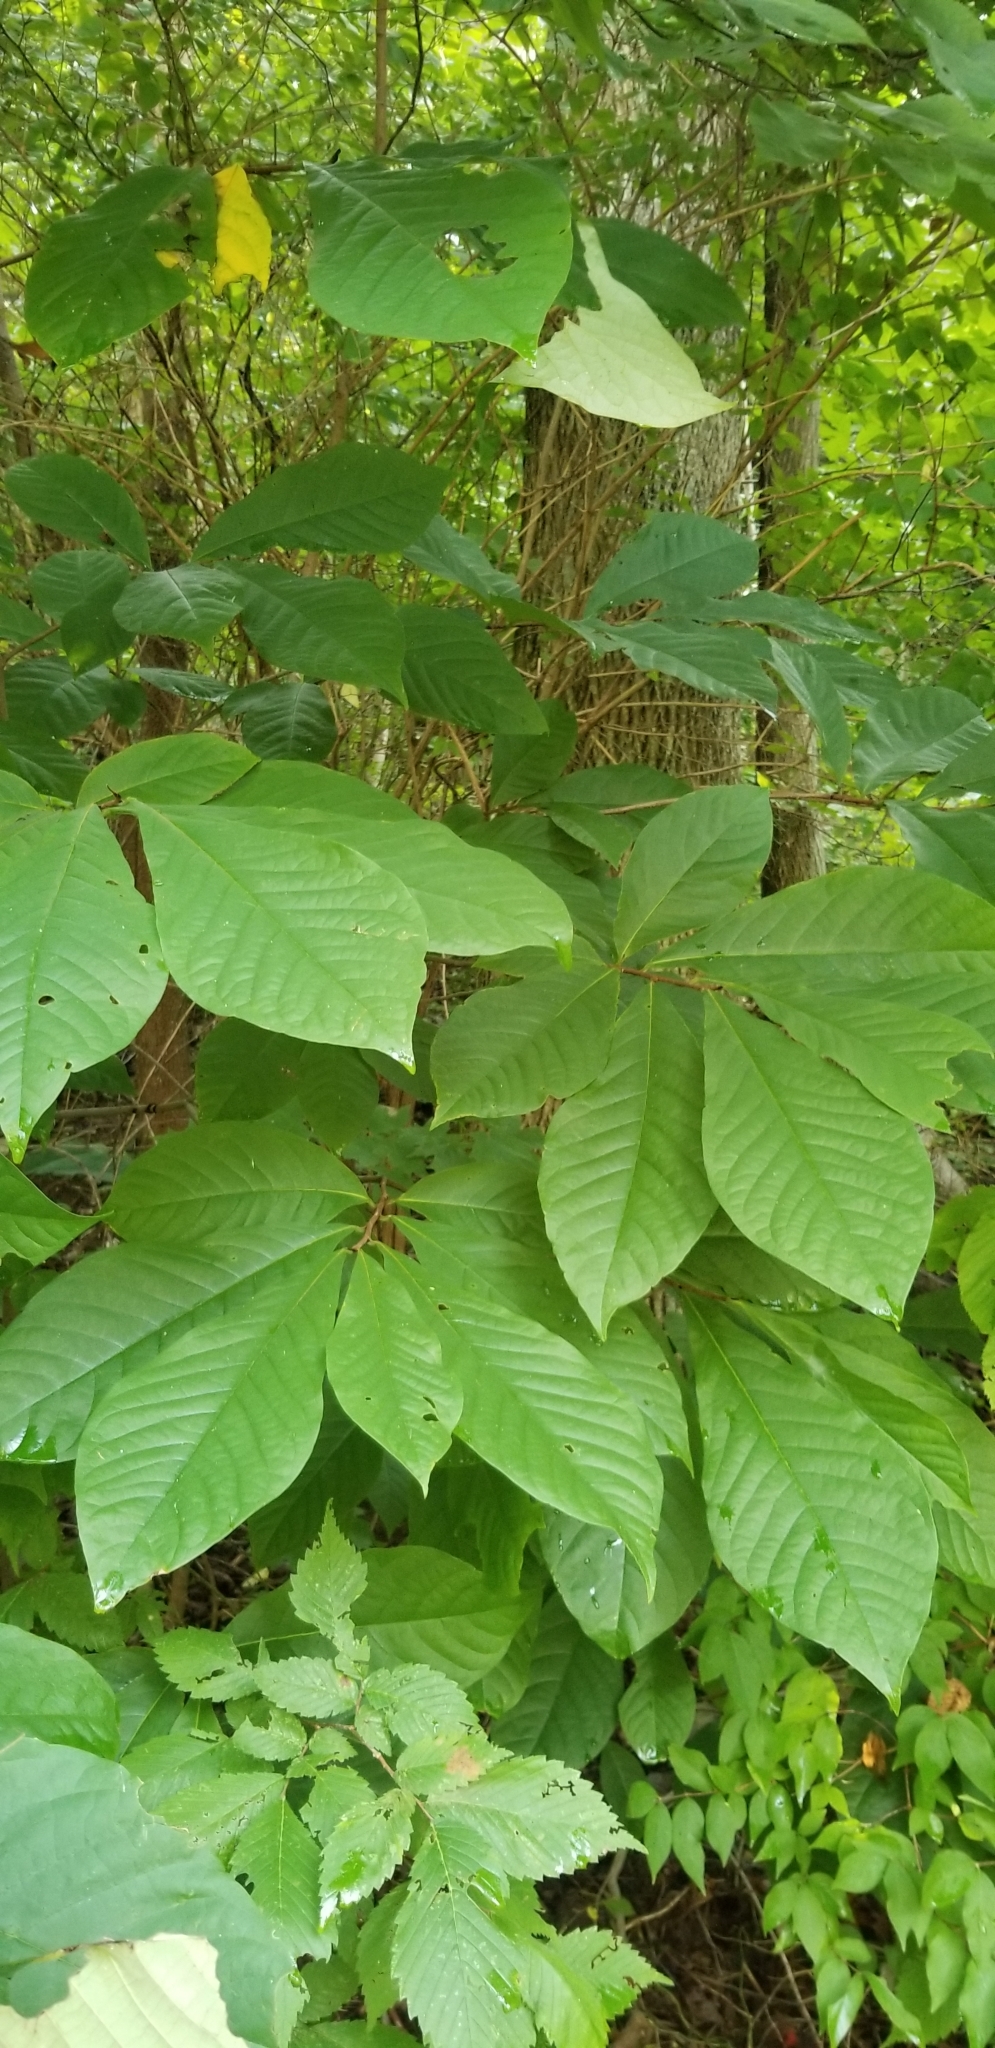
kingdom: Plantae
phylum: Tracheophyta
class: Magnoliopsida
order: Magnoliales
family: Annonaceae
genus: Asimina
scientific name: Asimina triloba
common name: Dog-banana
